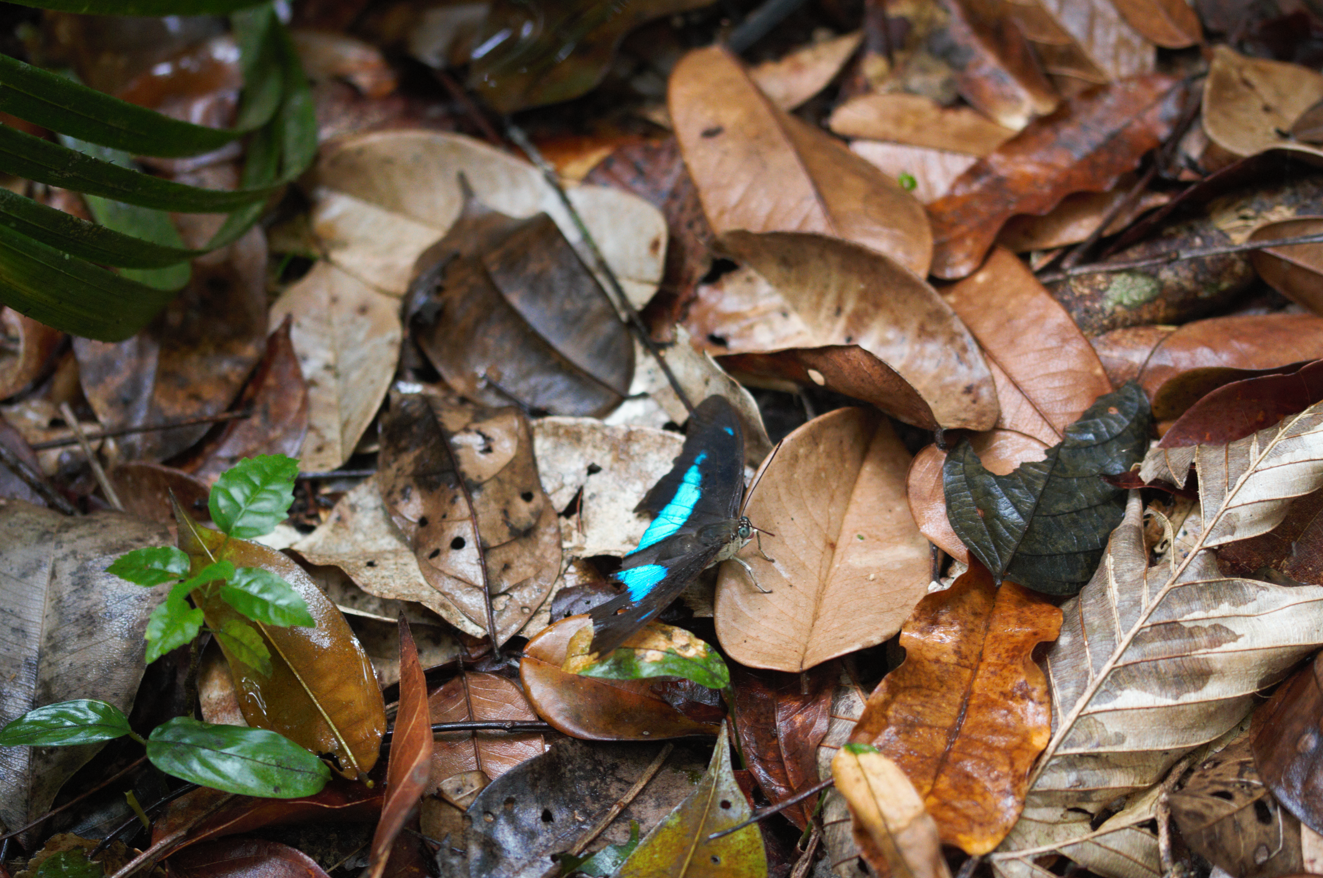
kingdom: Animalia
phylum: Arthropoda
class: Insecta
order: Lepidoptera
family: Nymphalidae
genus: Prepona
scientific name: Prepona meander
